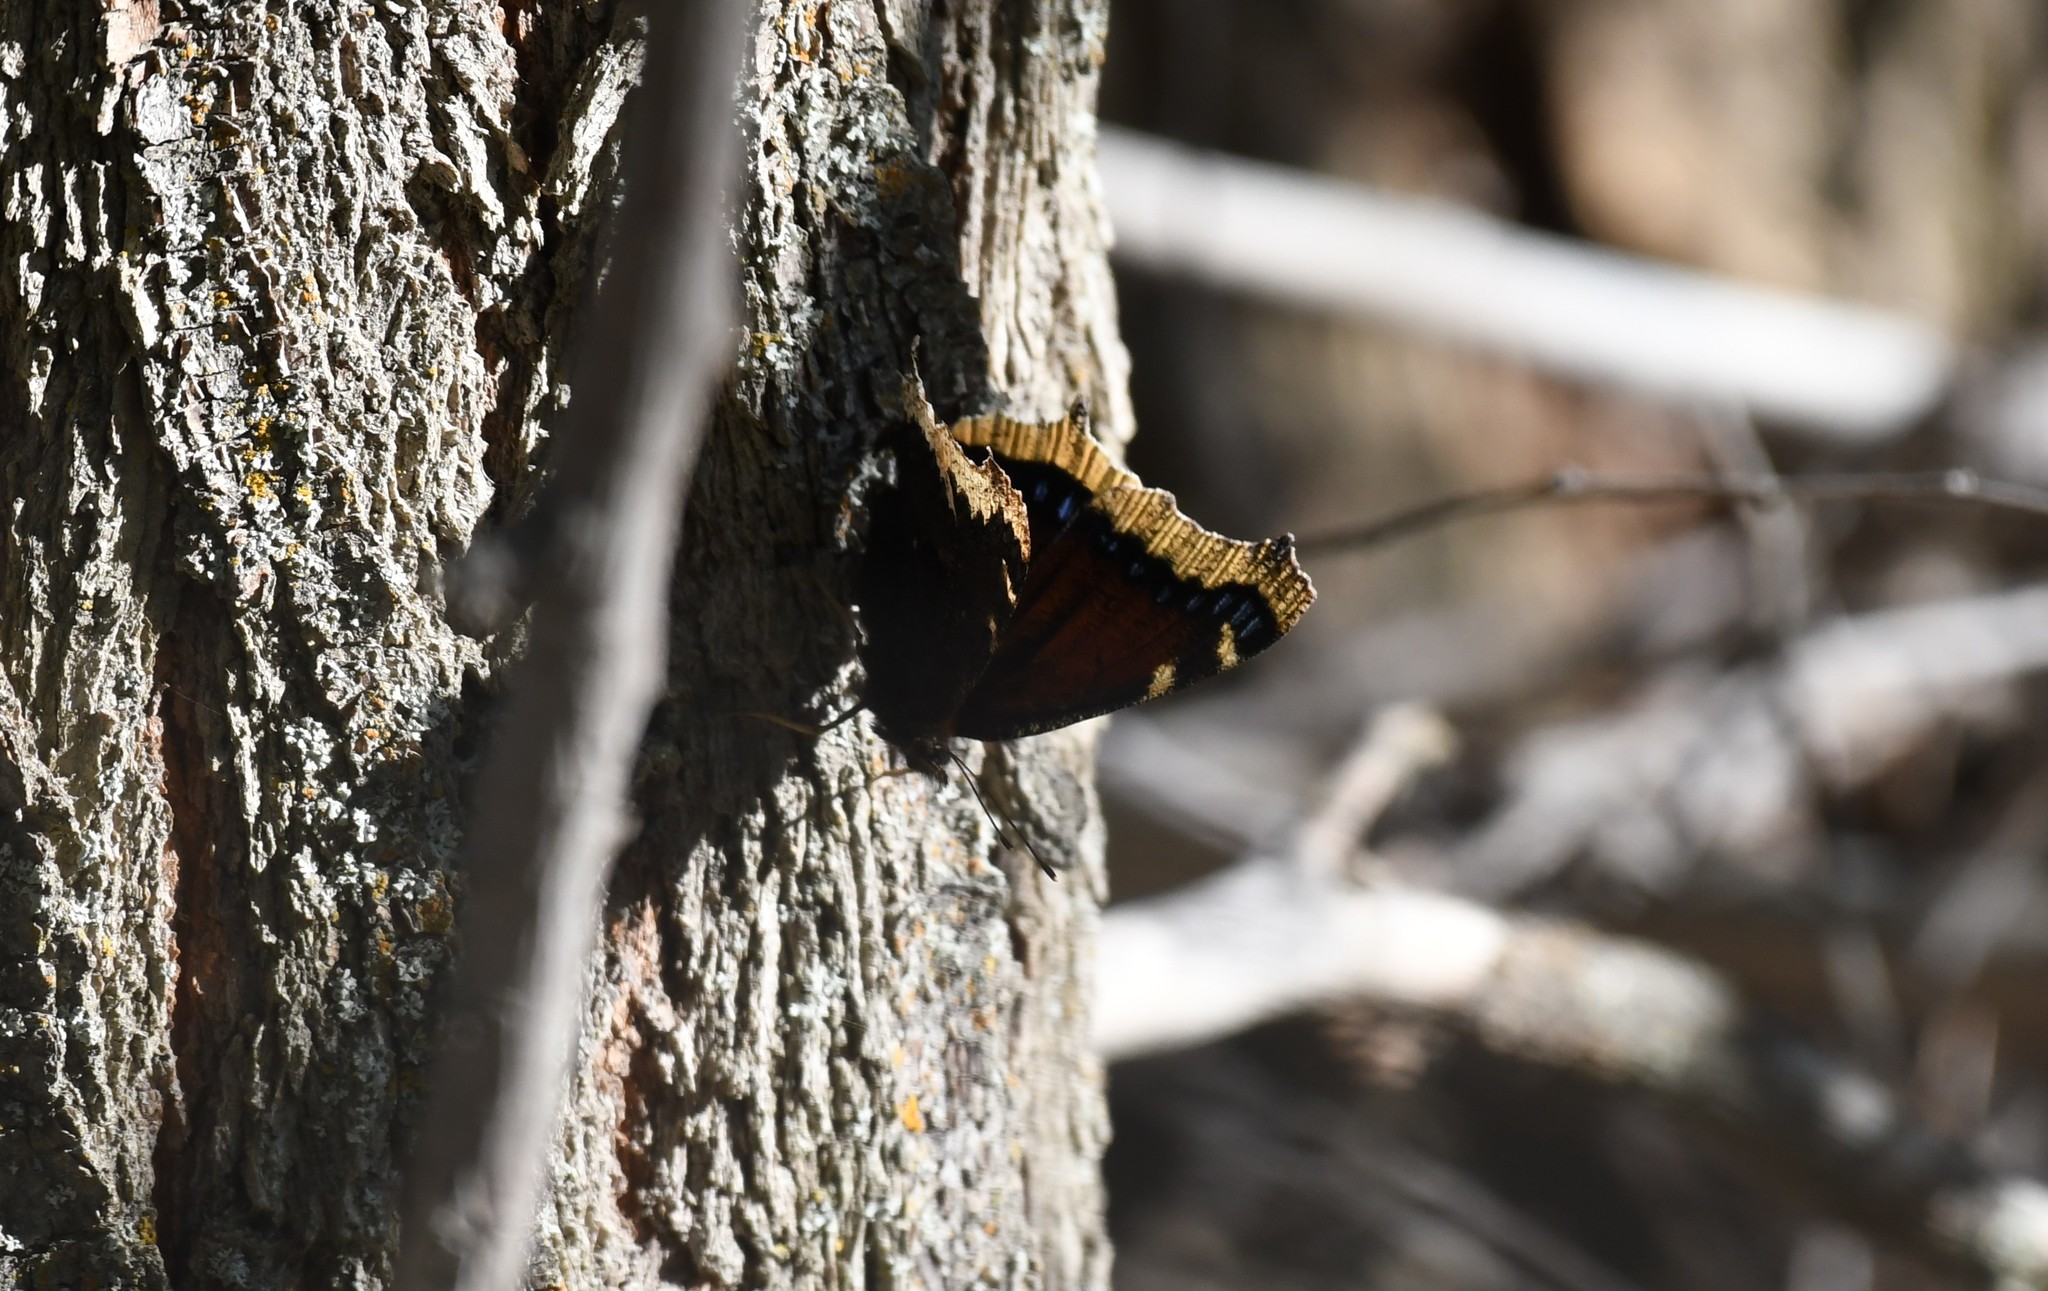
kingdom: Animalia
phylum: Arthropoda
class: Insecta
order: Lepidoptera
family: Nymphalidae
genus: Nymphalis
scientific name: Nymphalis antiopa
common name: Camberwell beauty
